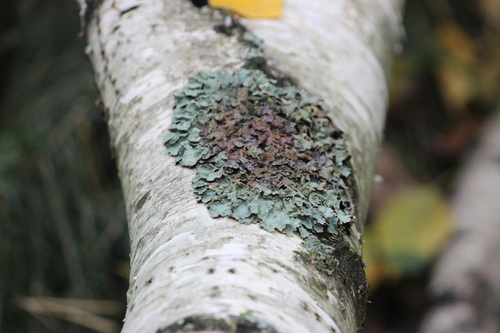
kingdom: Fungi
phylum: Ascomycota
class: Lecanoromycetes
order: Lecanorales
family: Parmeliaceae
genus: Parmelia
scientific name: Parmelia sulcata
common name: Netted shield lichen
